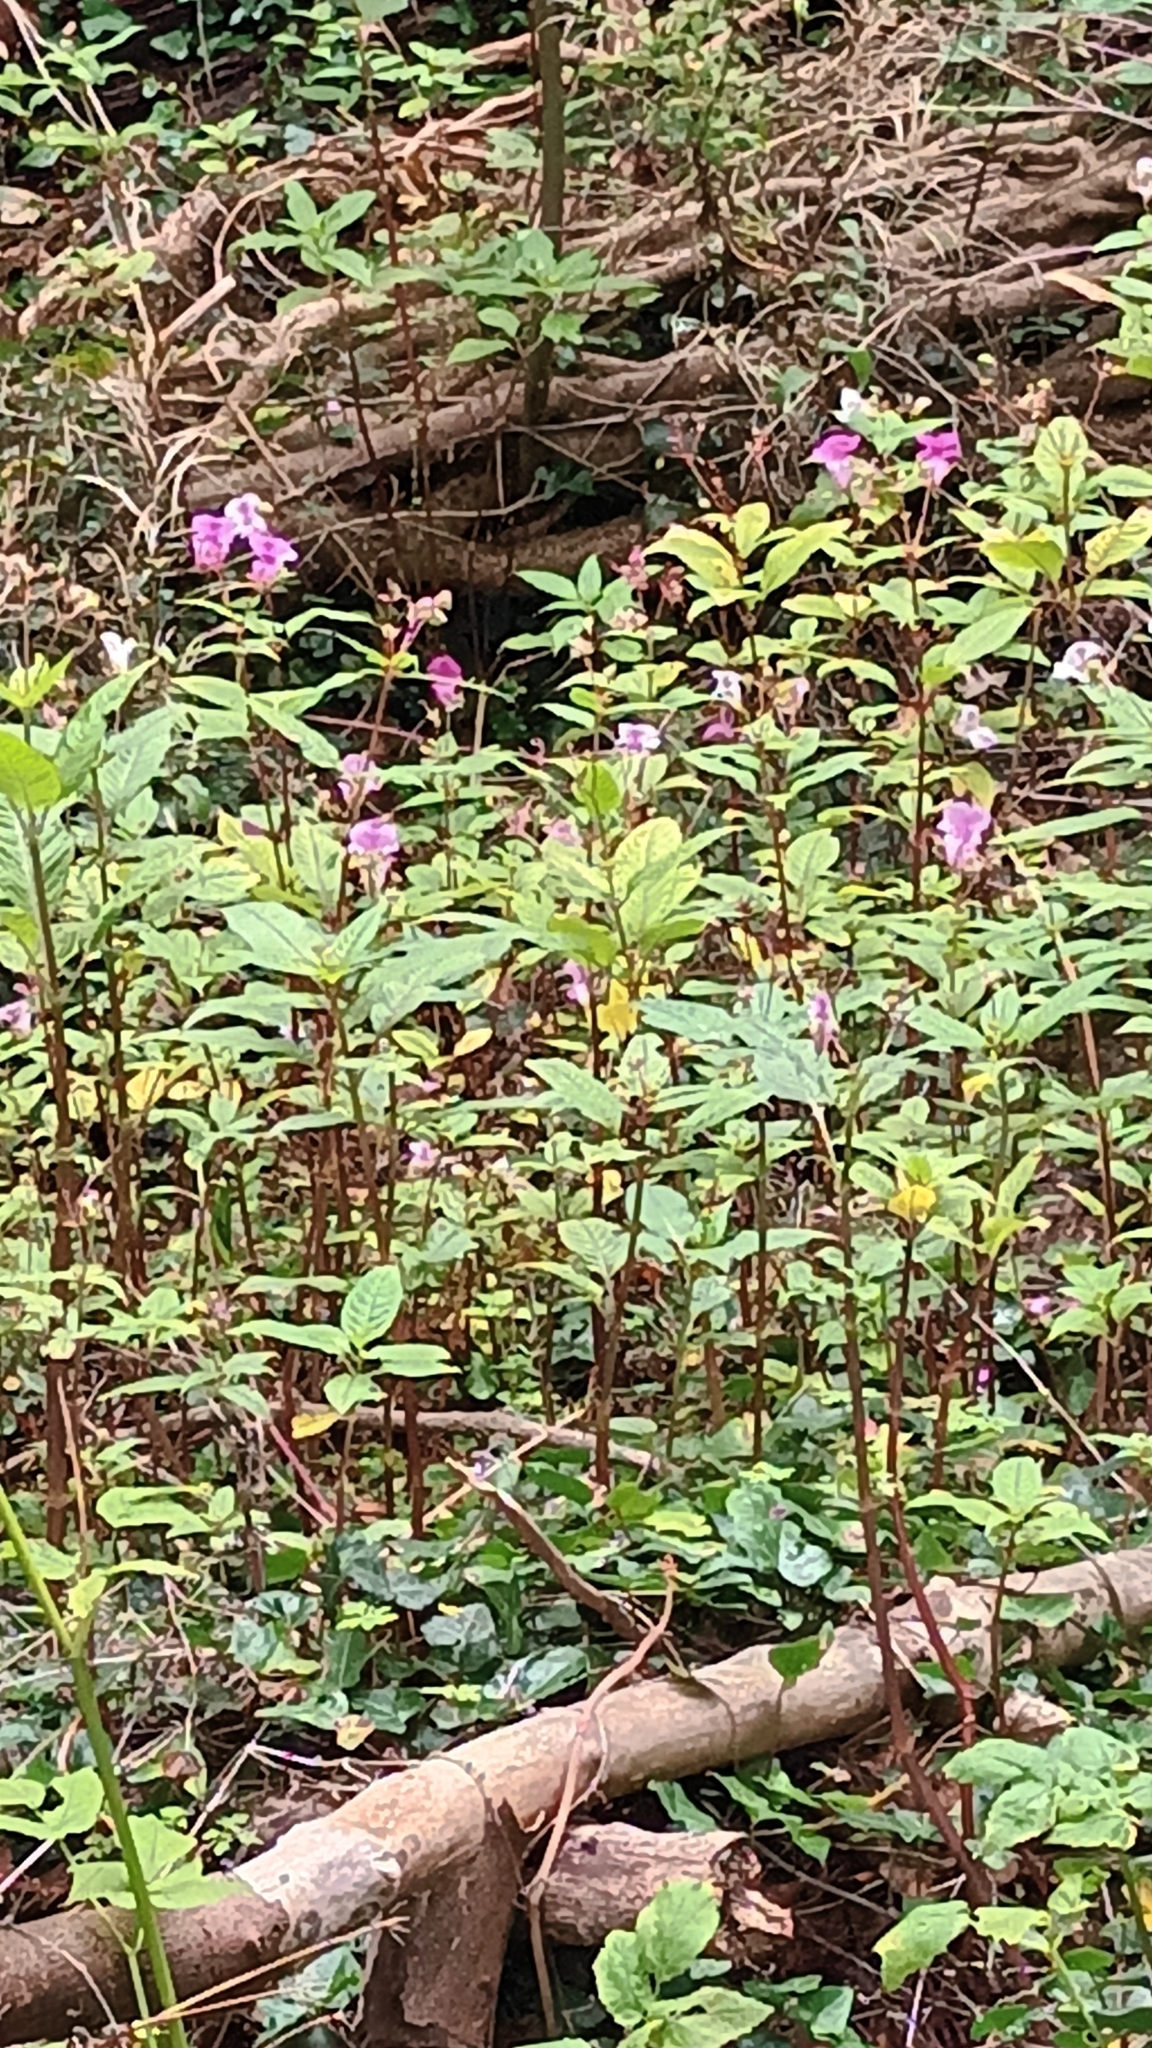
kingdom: Plantae
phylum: Tracheophyta
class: Magnoliopsida
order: Ericales
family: Balsaminaceae
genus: Impatiens
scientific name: Impatiens glandulifera
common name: Himalayan balsam
